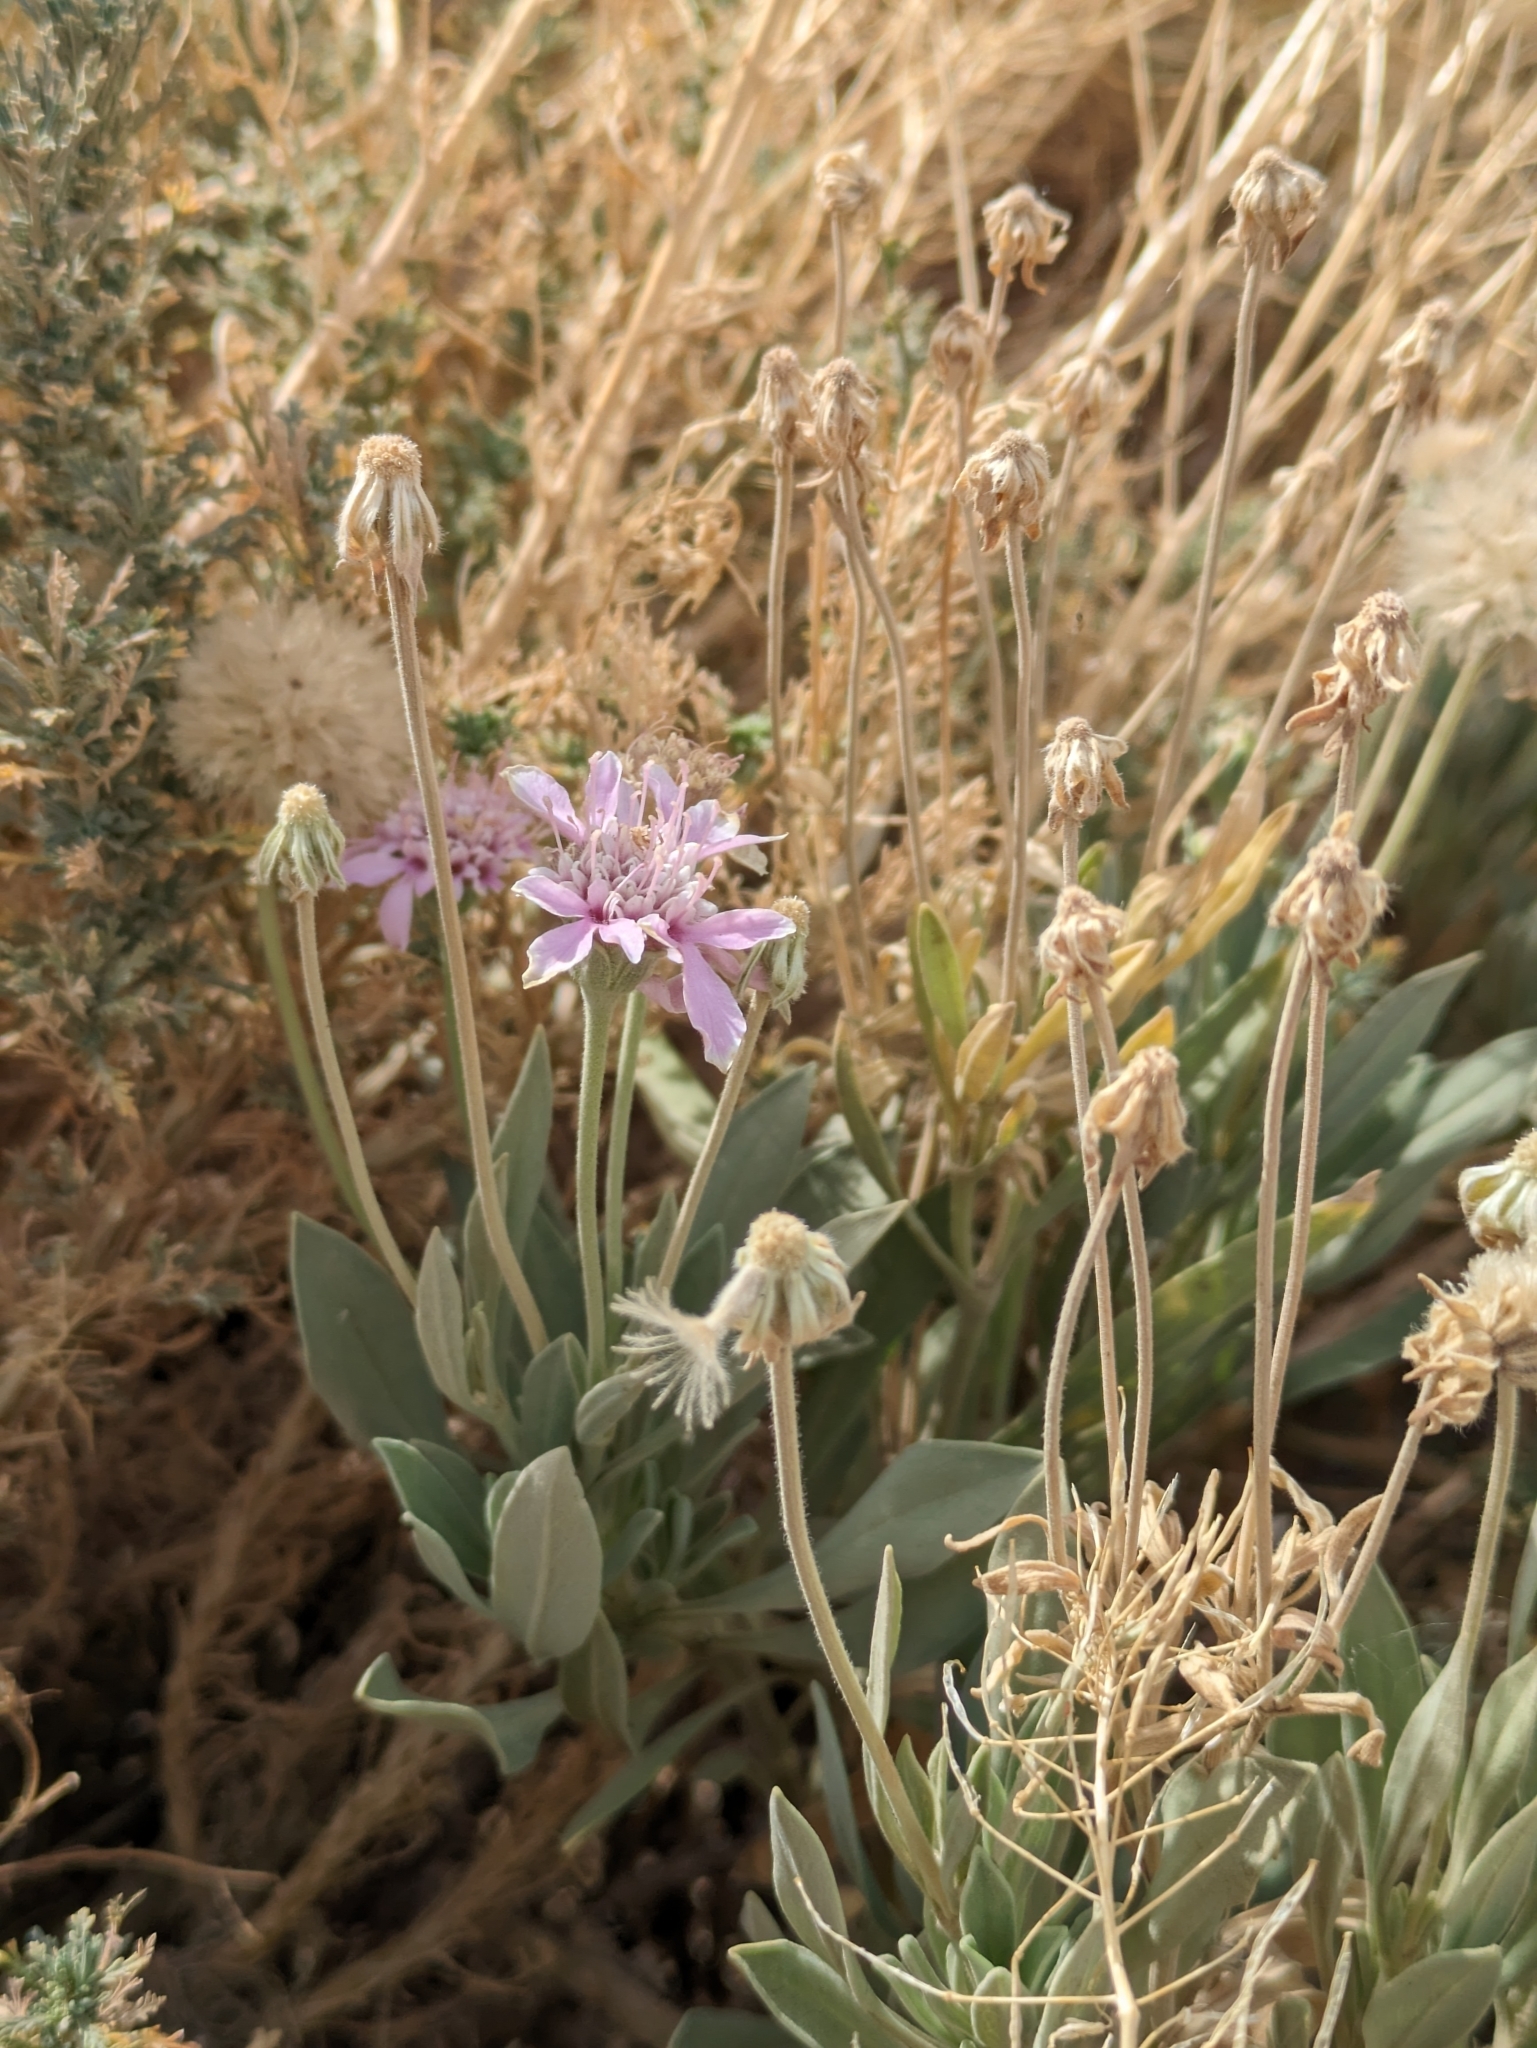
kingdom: Plantae
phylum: Tracheophyta
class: Magnoliopsida
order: Dipsacales
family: Caprifoliaceae
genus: Pterocephalus
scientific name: Pterocephalus lasiospermus
